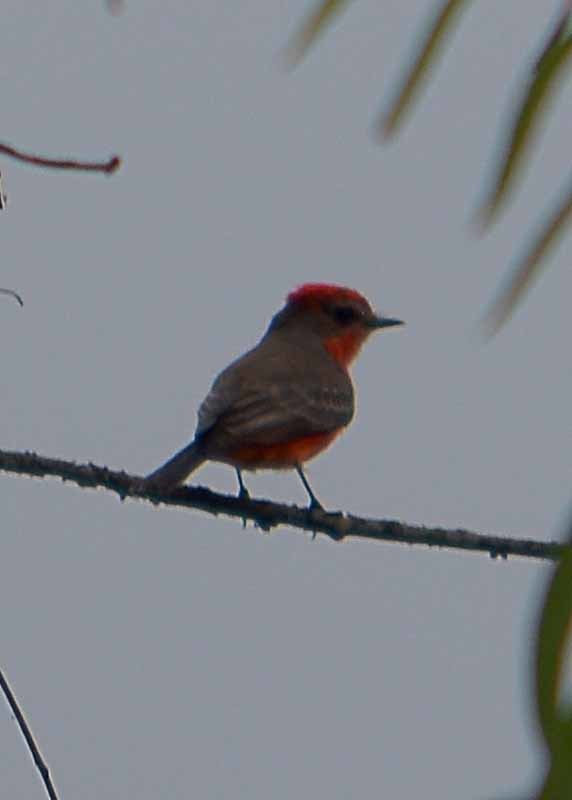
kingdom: Animalia
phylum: Chordata
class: Aves
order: Passeriformes
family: Tyrannidae
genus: Pyrocephalus
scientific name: Pyrocephalus rubinus
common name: Vermilion flycatcher
